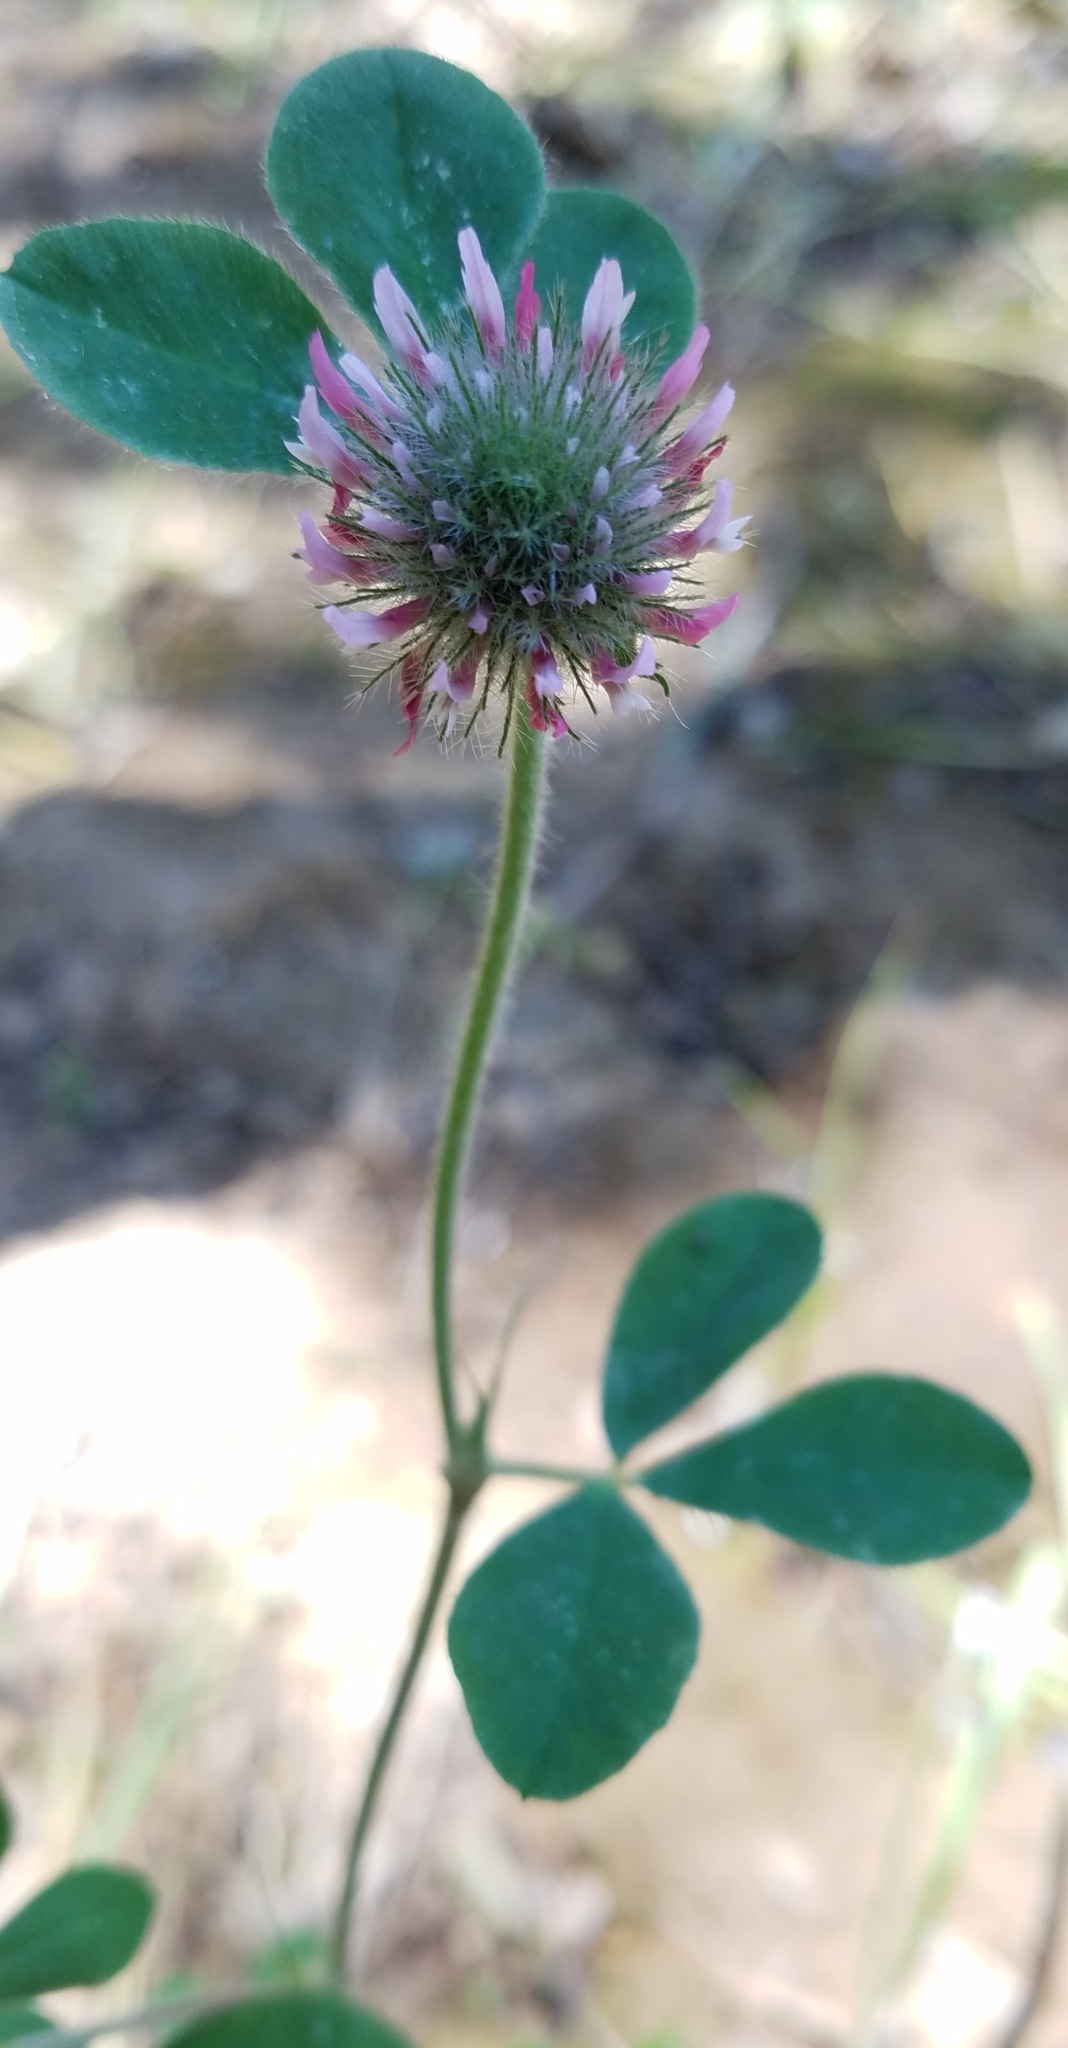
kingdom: Plantae
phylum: Tracheophyta
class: Magnoliopsida
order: Fabales
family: Fabaceae
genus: Trifolium
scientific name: Trifolium hirtum
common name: Rose clover
